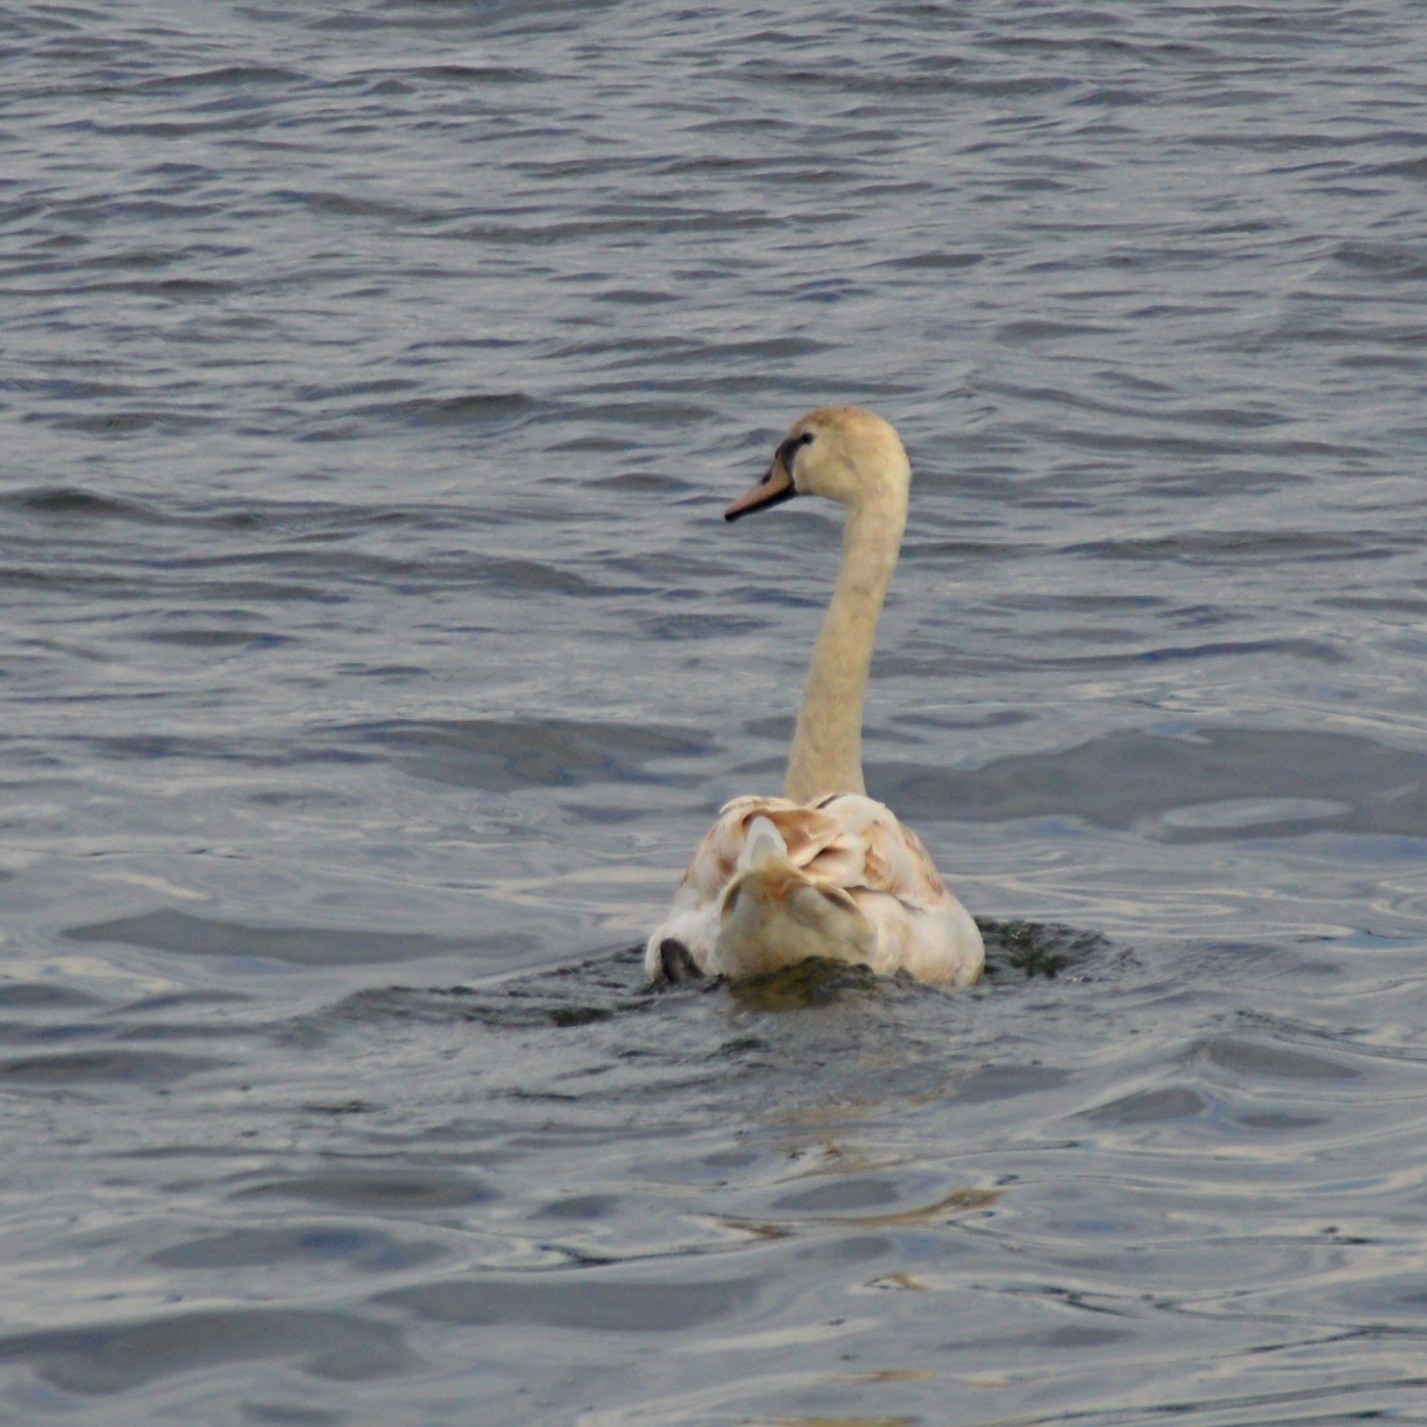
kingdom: Animalia
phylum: Chordata
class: Aves
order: Anseriformes
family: Anatidae
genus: Cygnus
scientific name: Cygnus olor
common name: Mute swan
